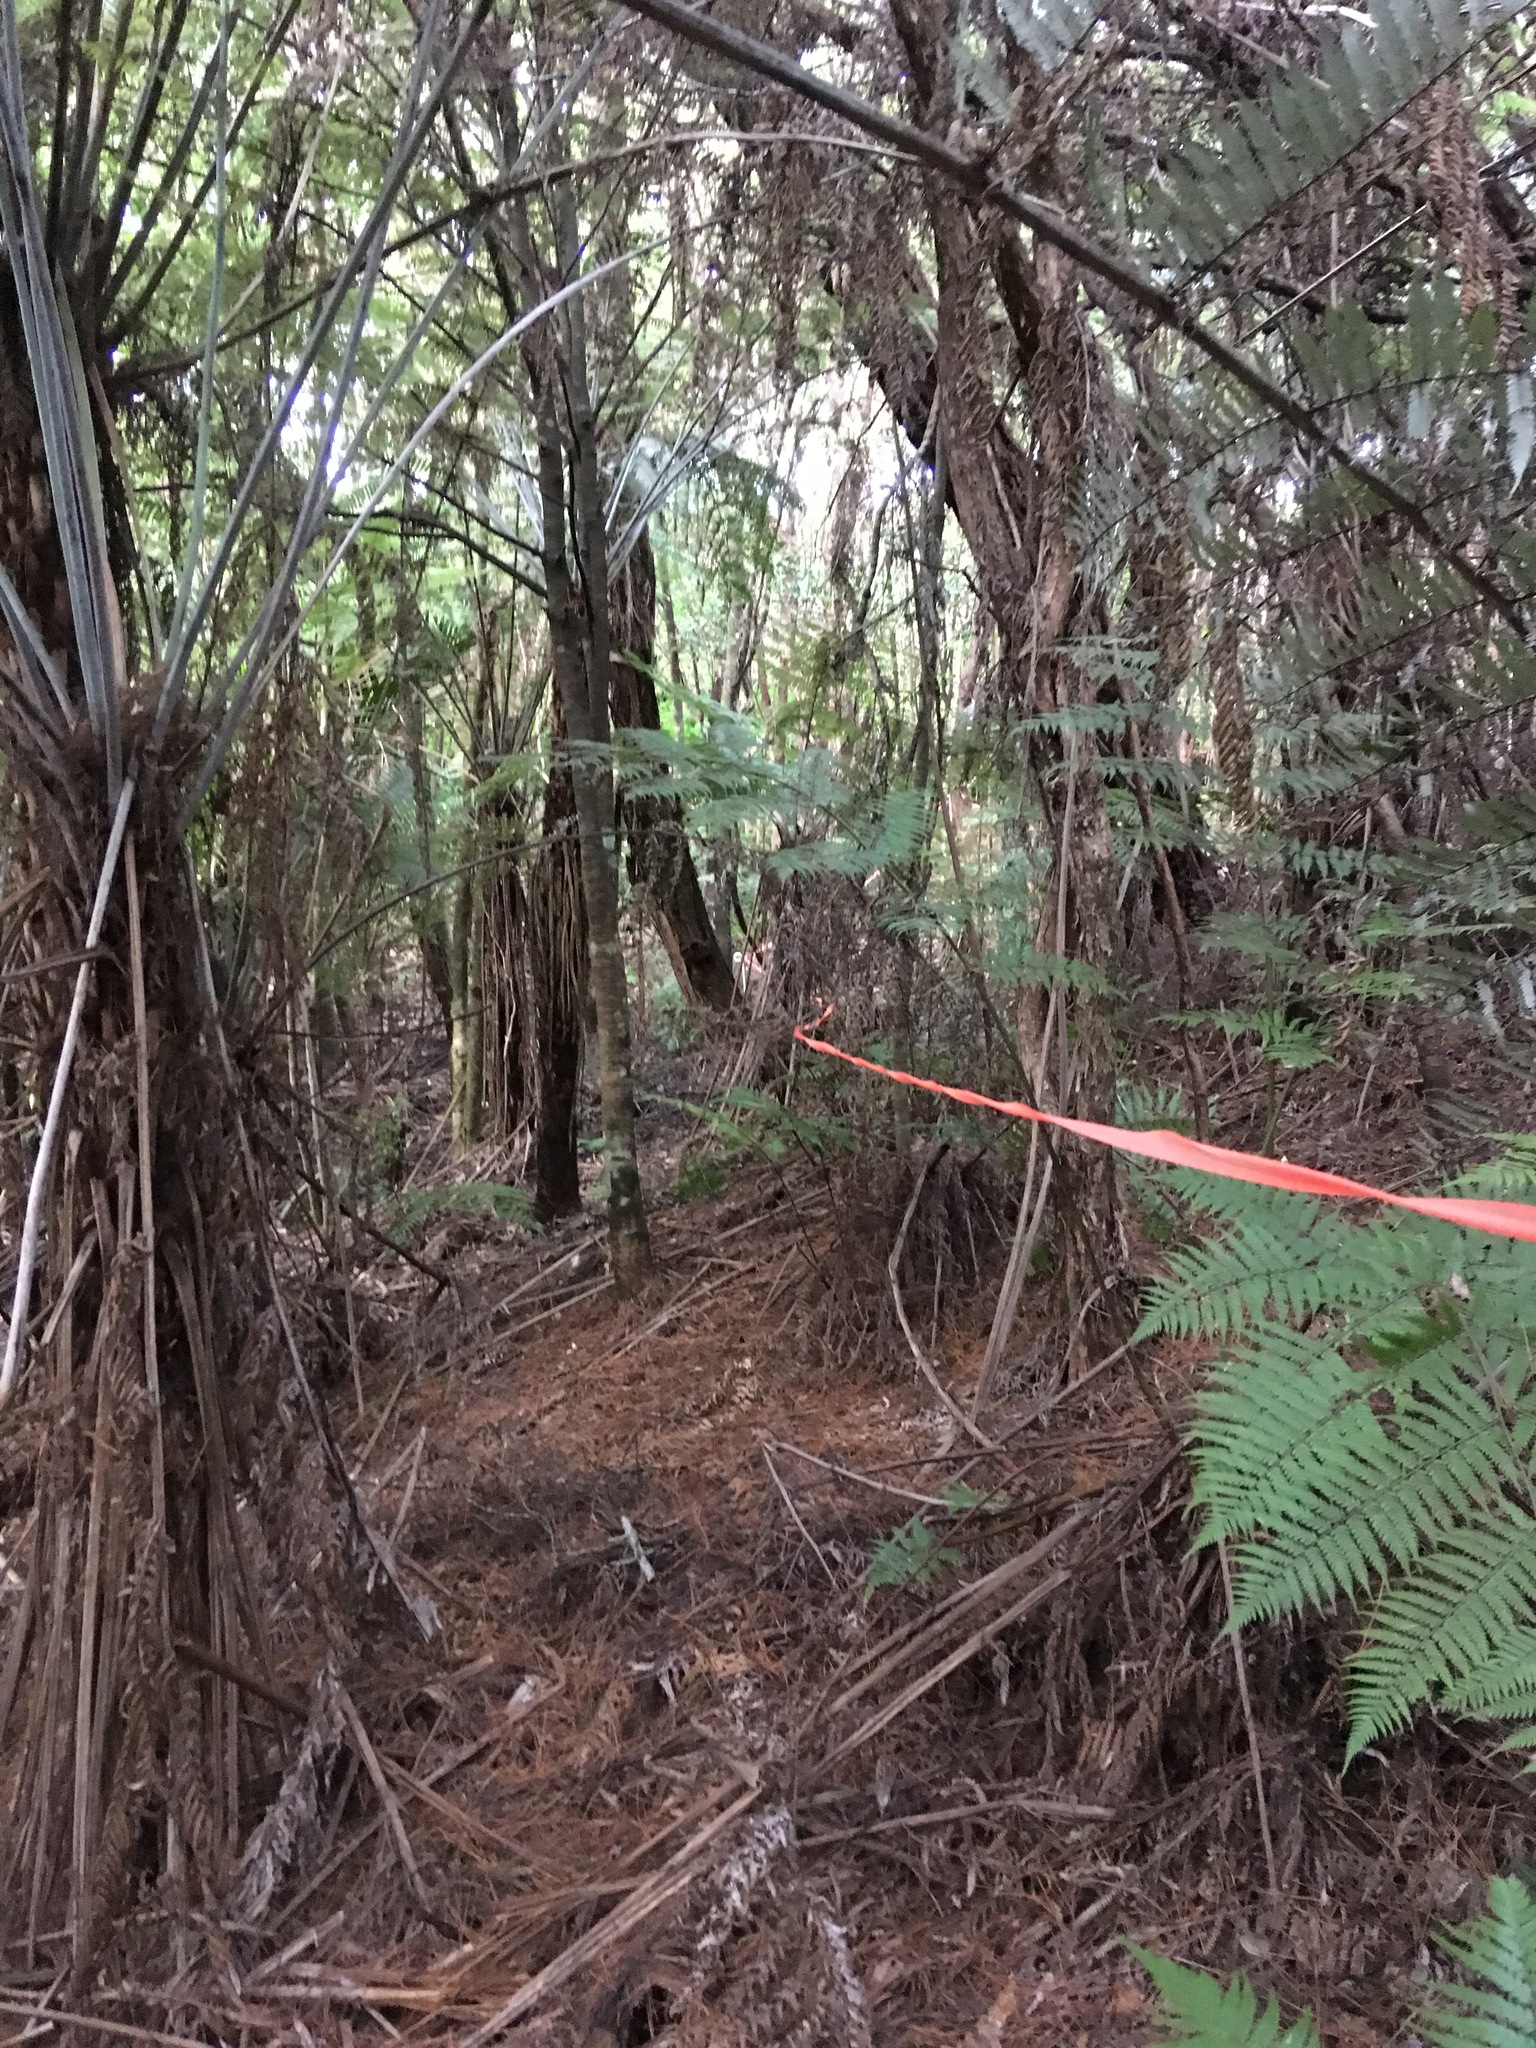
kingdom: Plantae
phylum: Tracheophyta
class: Polypodiopsida
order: Cyatheales
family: Cyatheaceae
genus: Alsophila
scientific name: Alsophila dealbata
